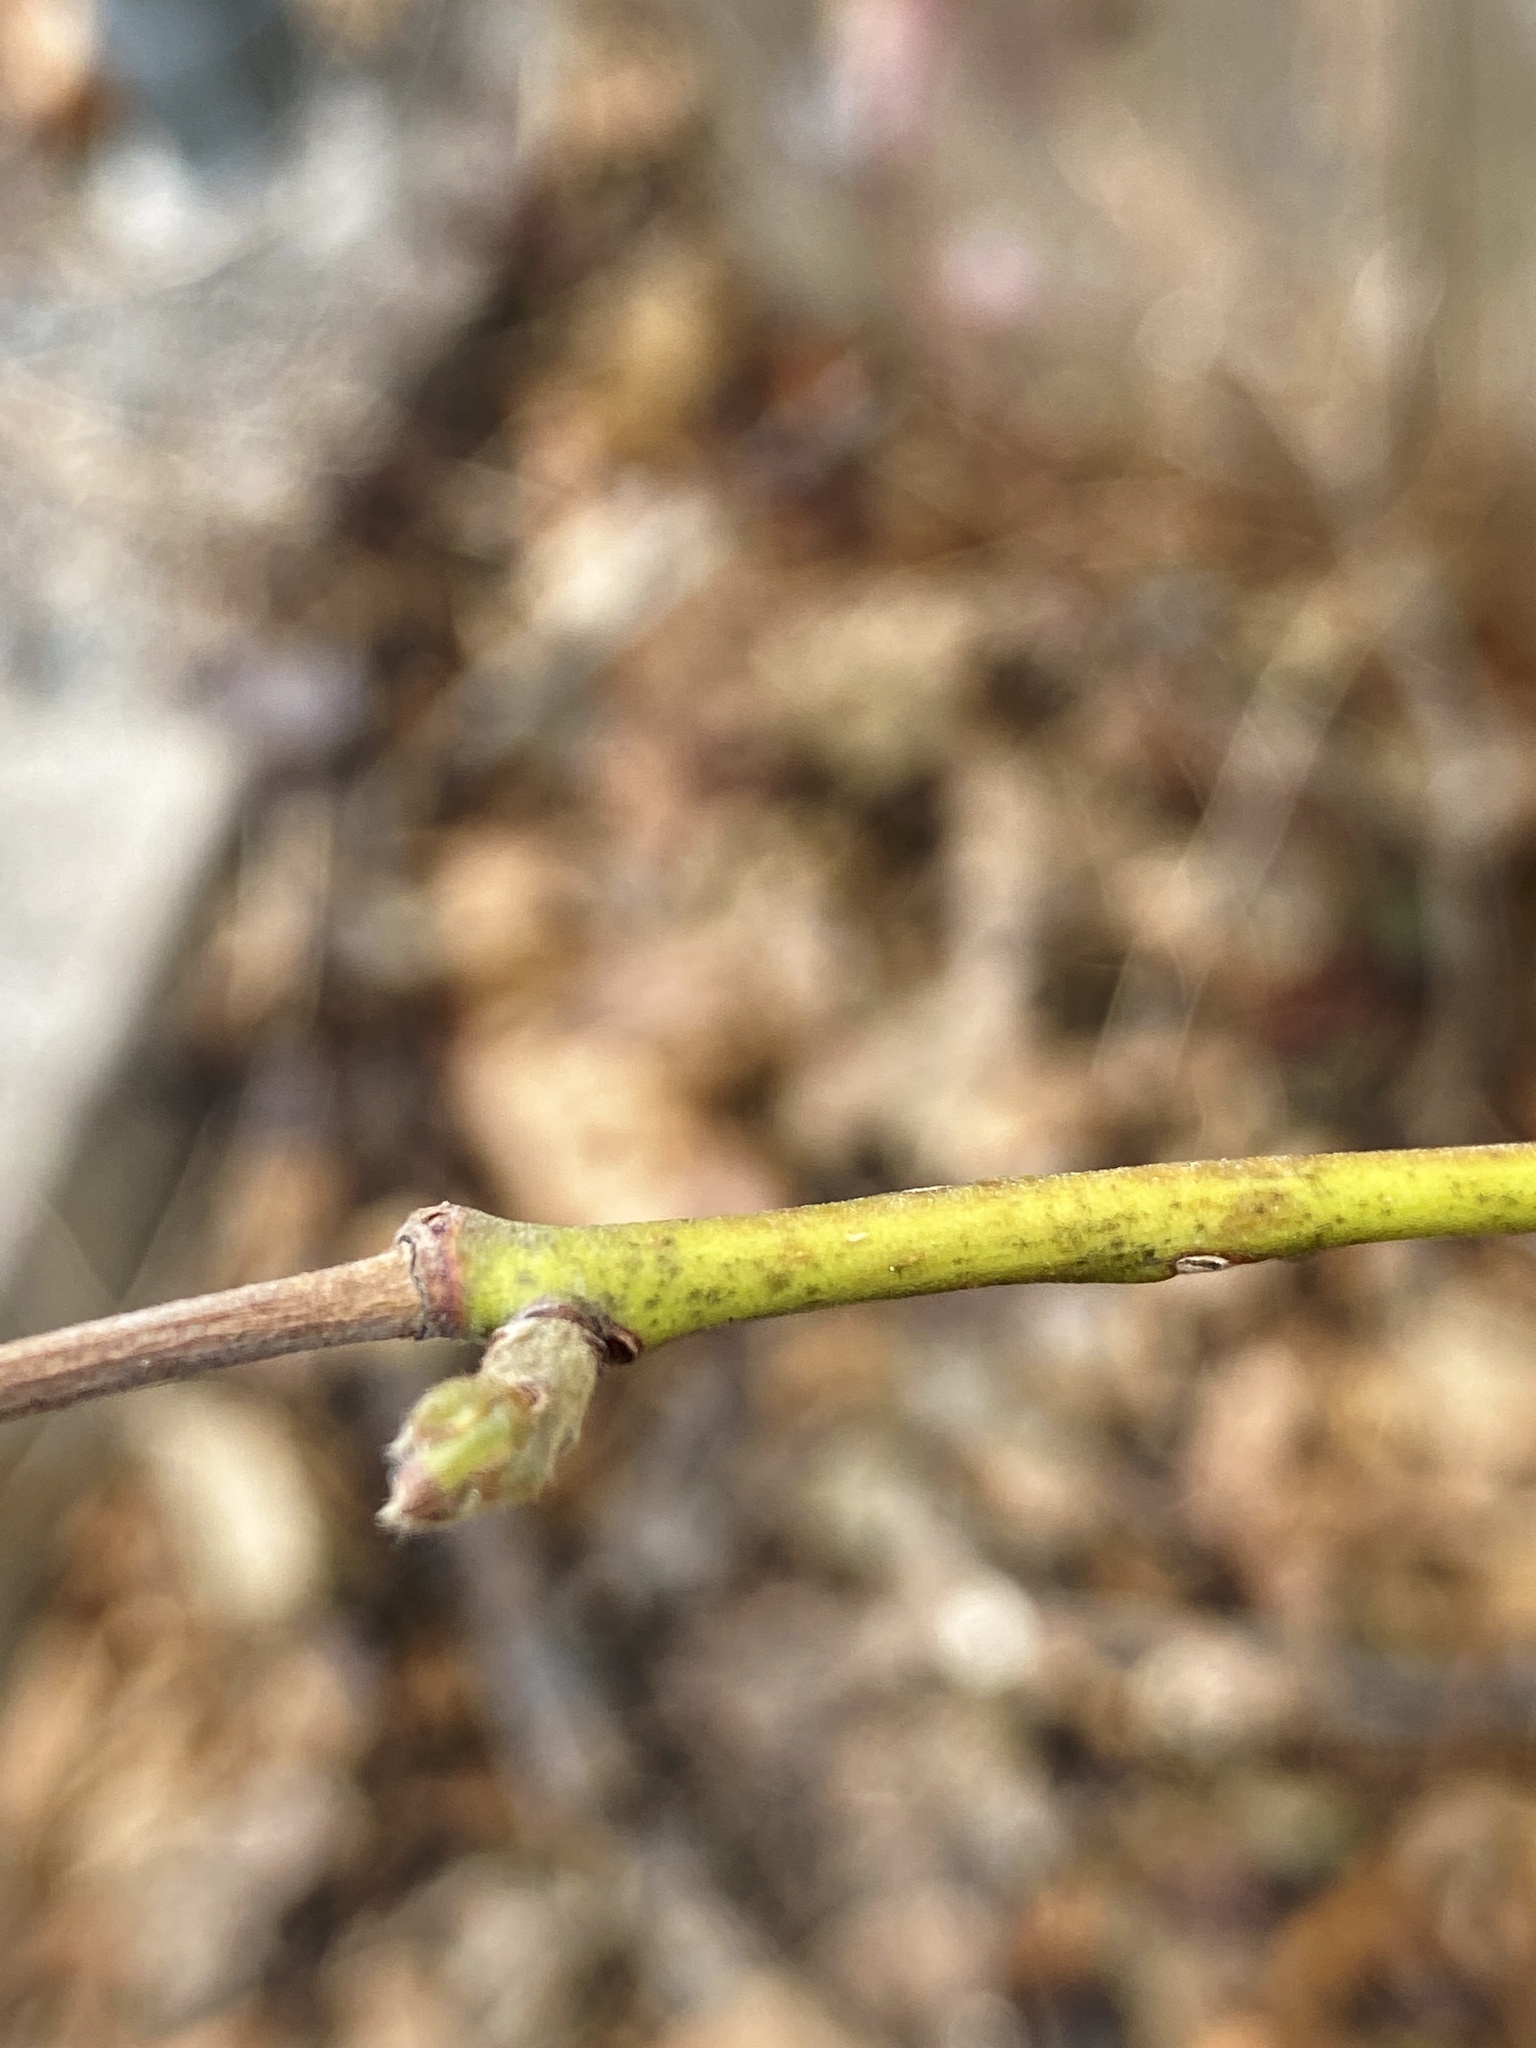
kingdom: Plantae
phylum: Tracheophyta
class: Magnoliopsida
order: Laurales
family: Lauraceae
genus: Sassafras
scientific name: Sassafras albidum
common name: Sassafras
